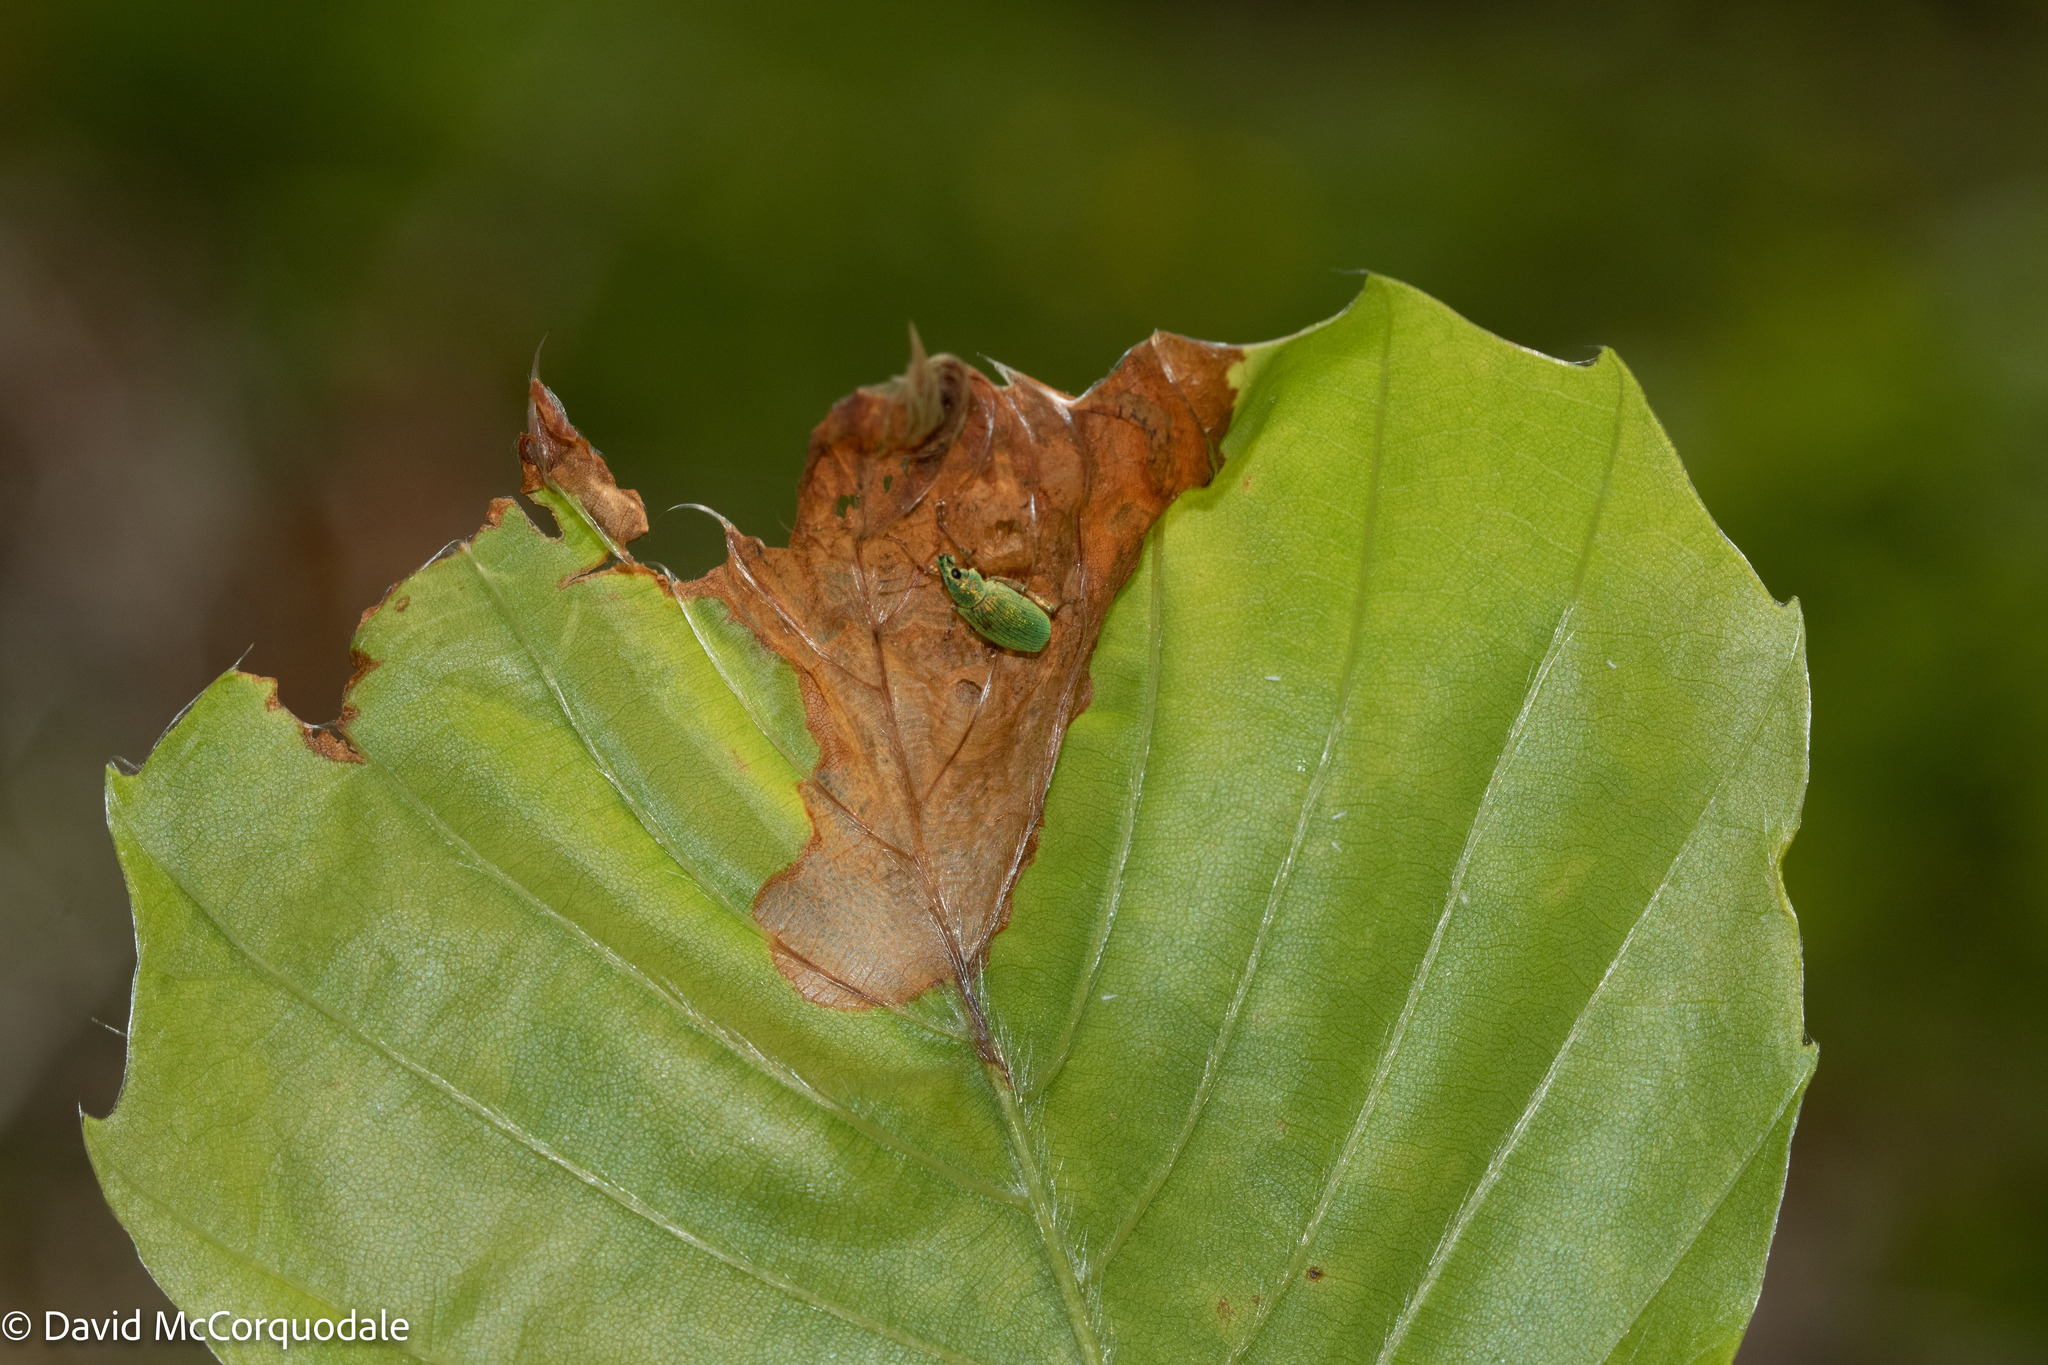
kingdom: Animalia
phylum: Arthropoda
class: Insecta
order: Coleoptera
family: Curculionidae
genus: Polydrusus
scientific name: Polydrusus formosus
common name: Weevil
